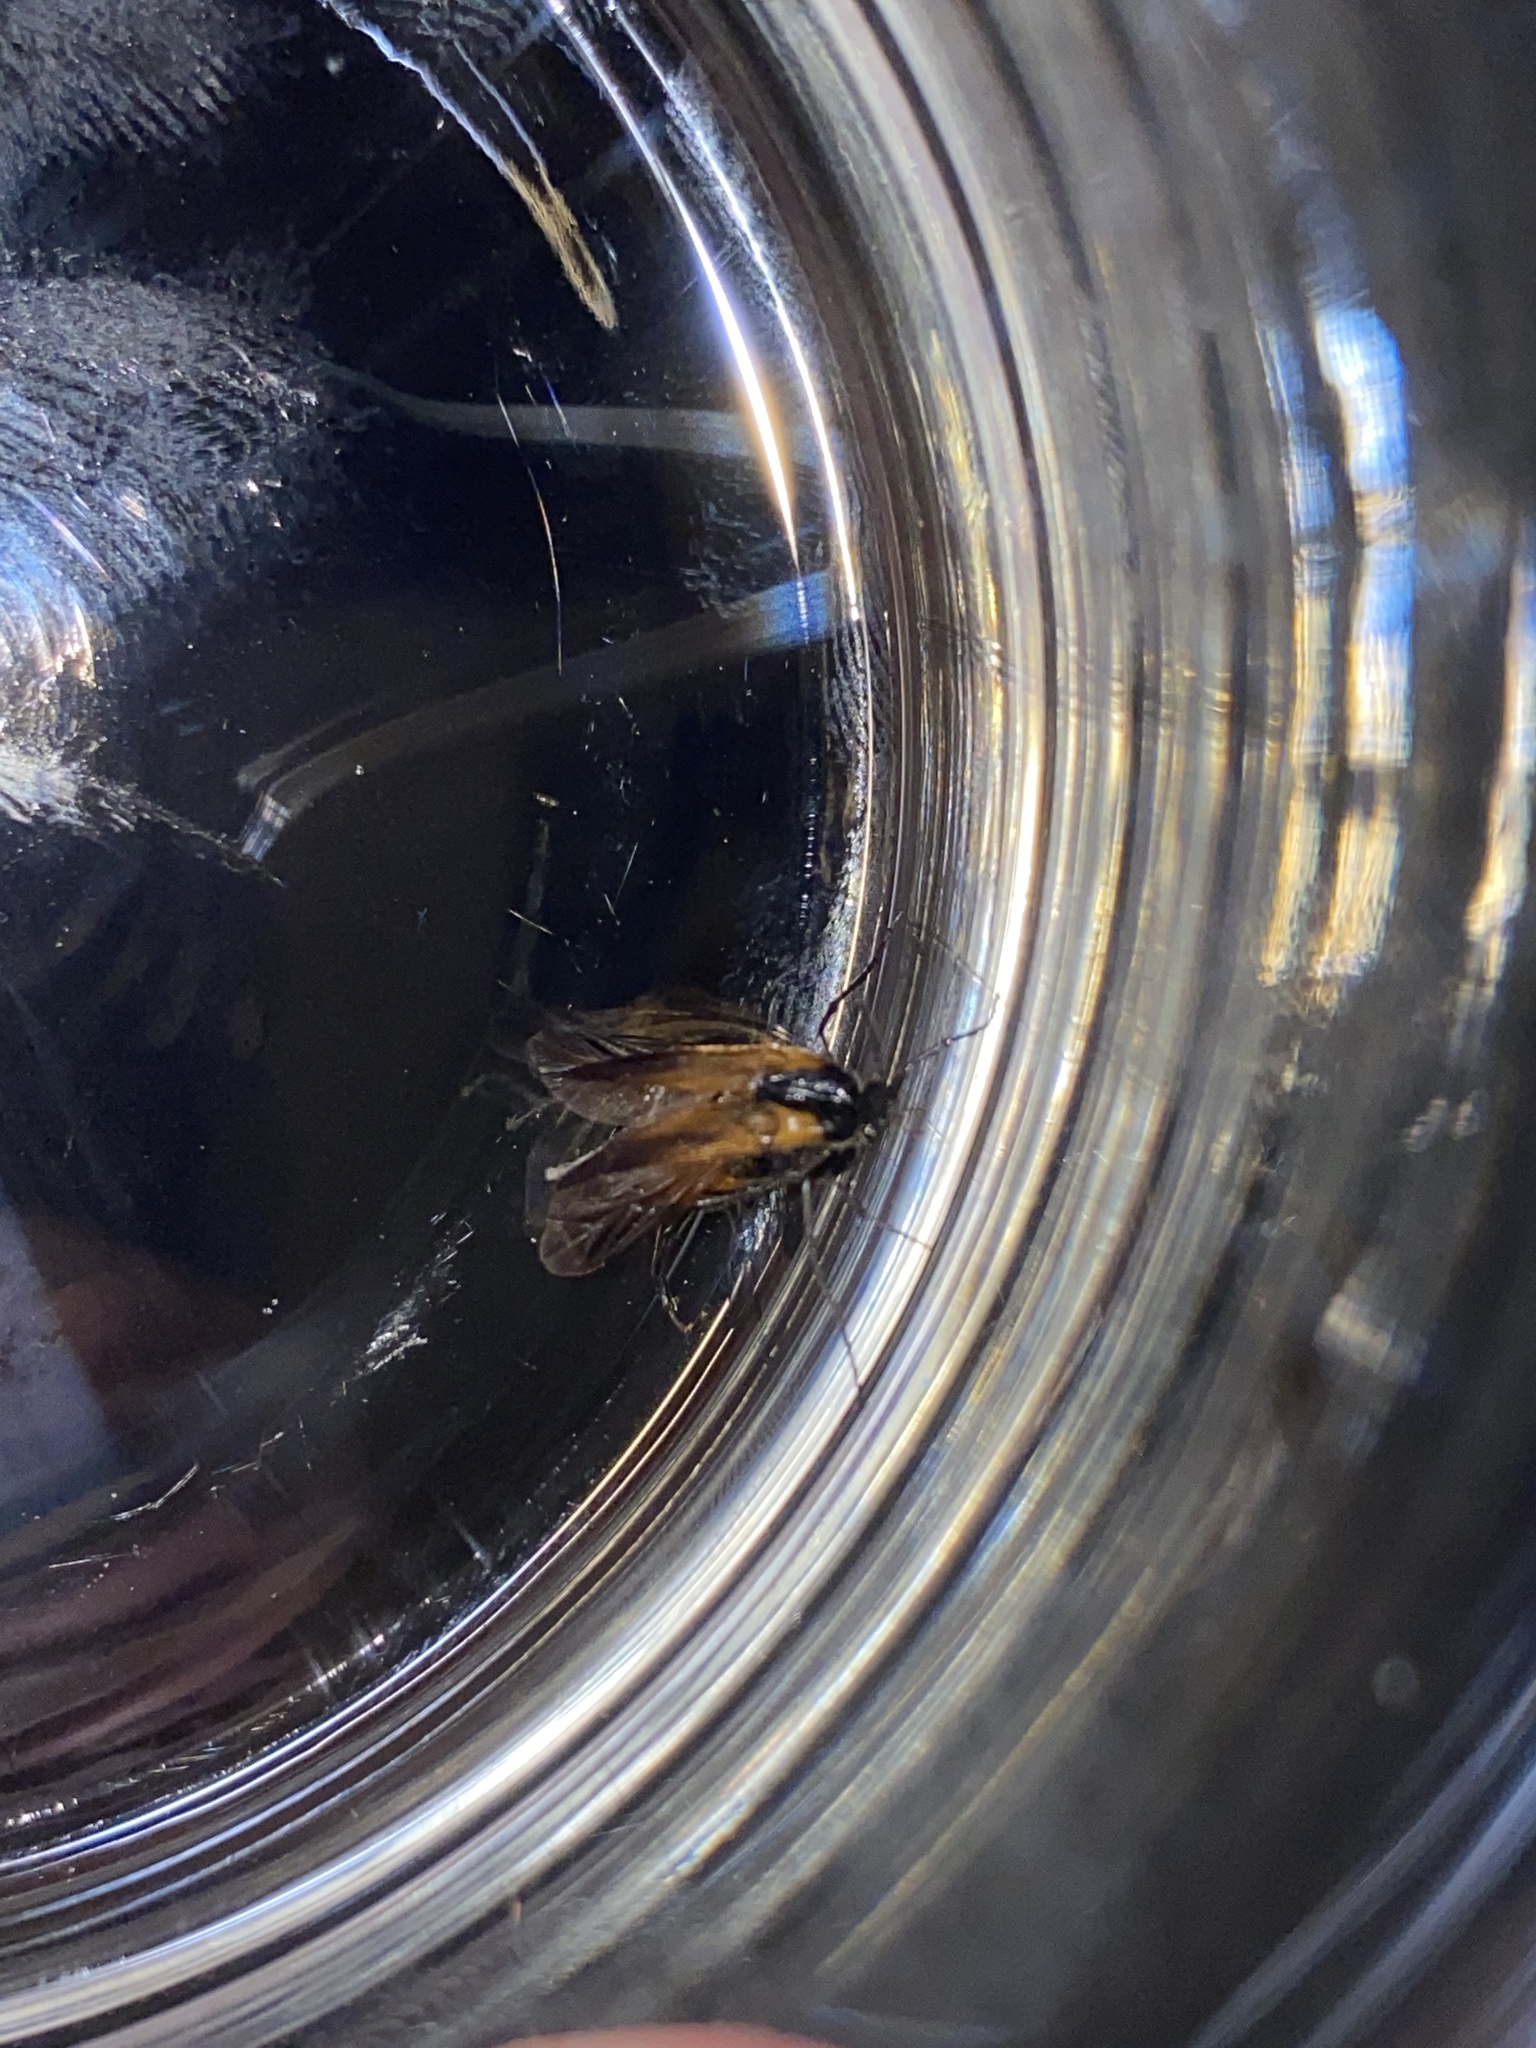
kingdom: Animalia
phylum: Arthropoda
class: Insecta
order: Coleoptera
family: Ripiphoridae
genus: Metoecus
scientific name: Metoecus paradoxus
